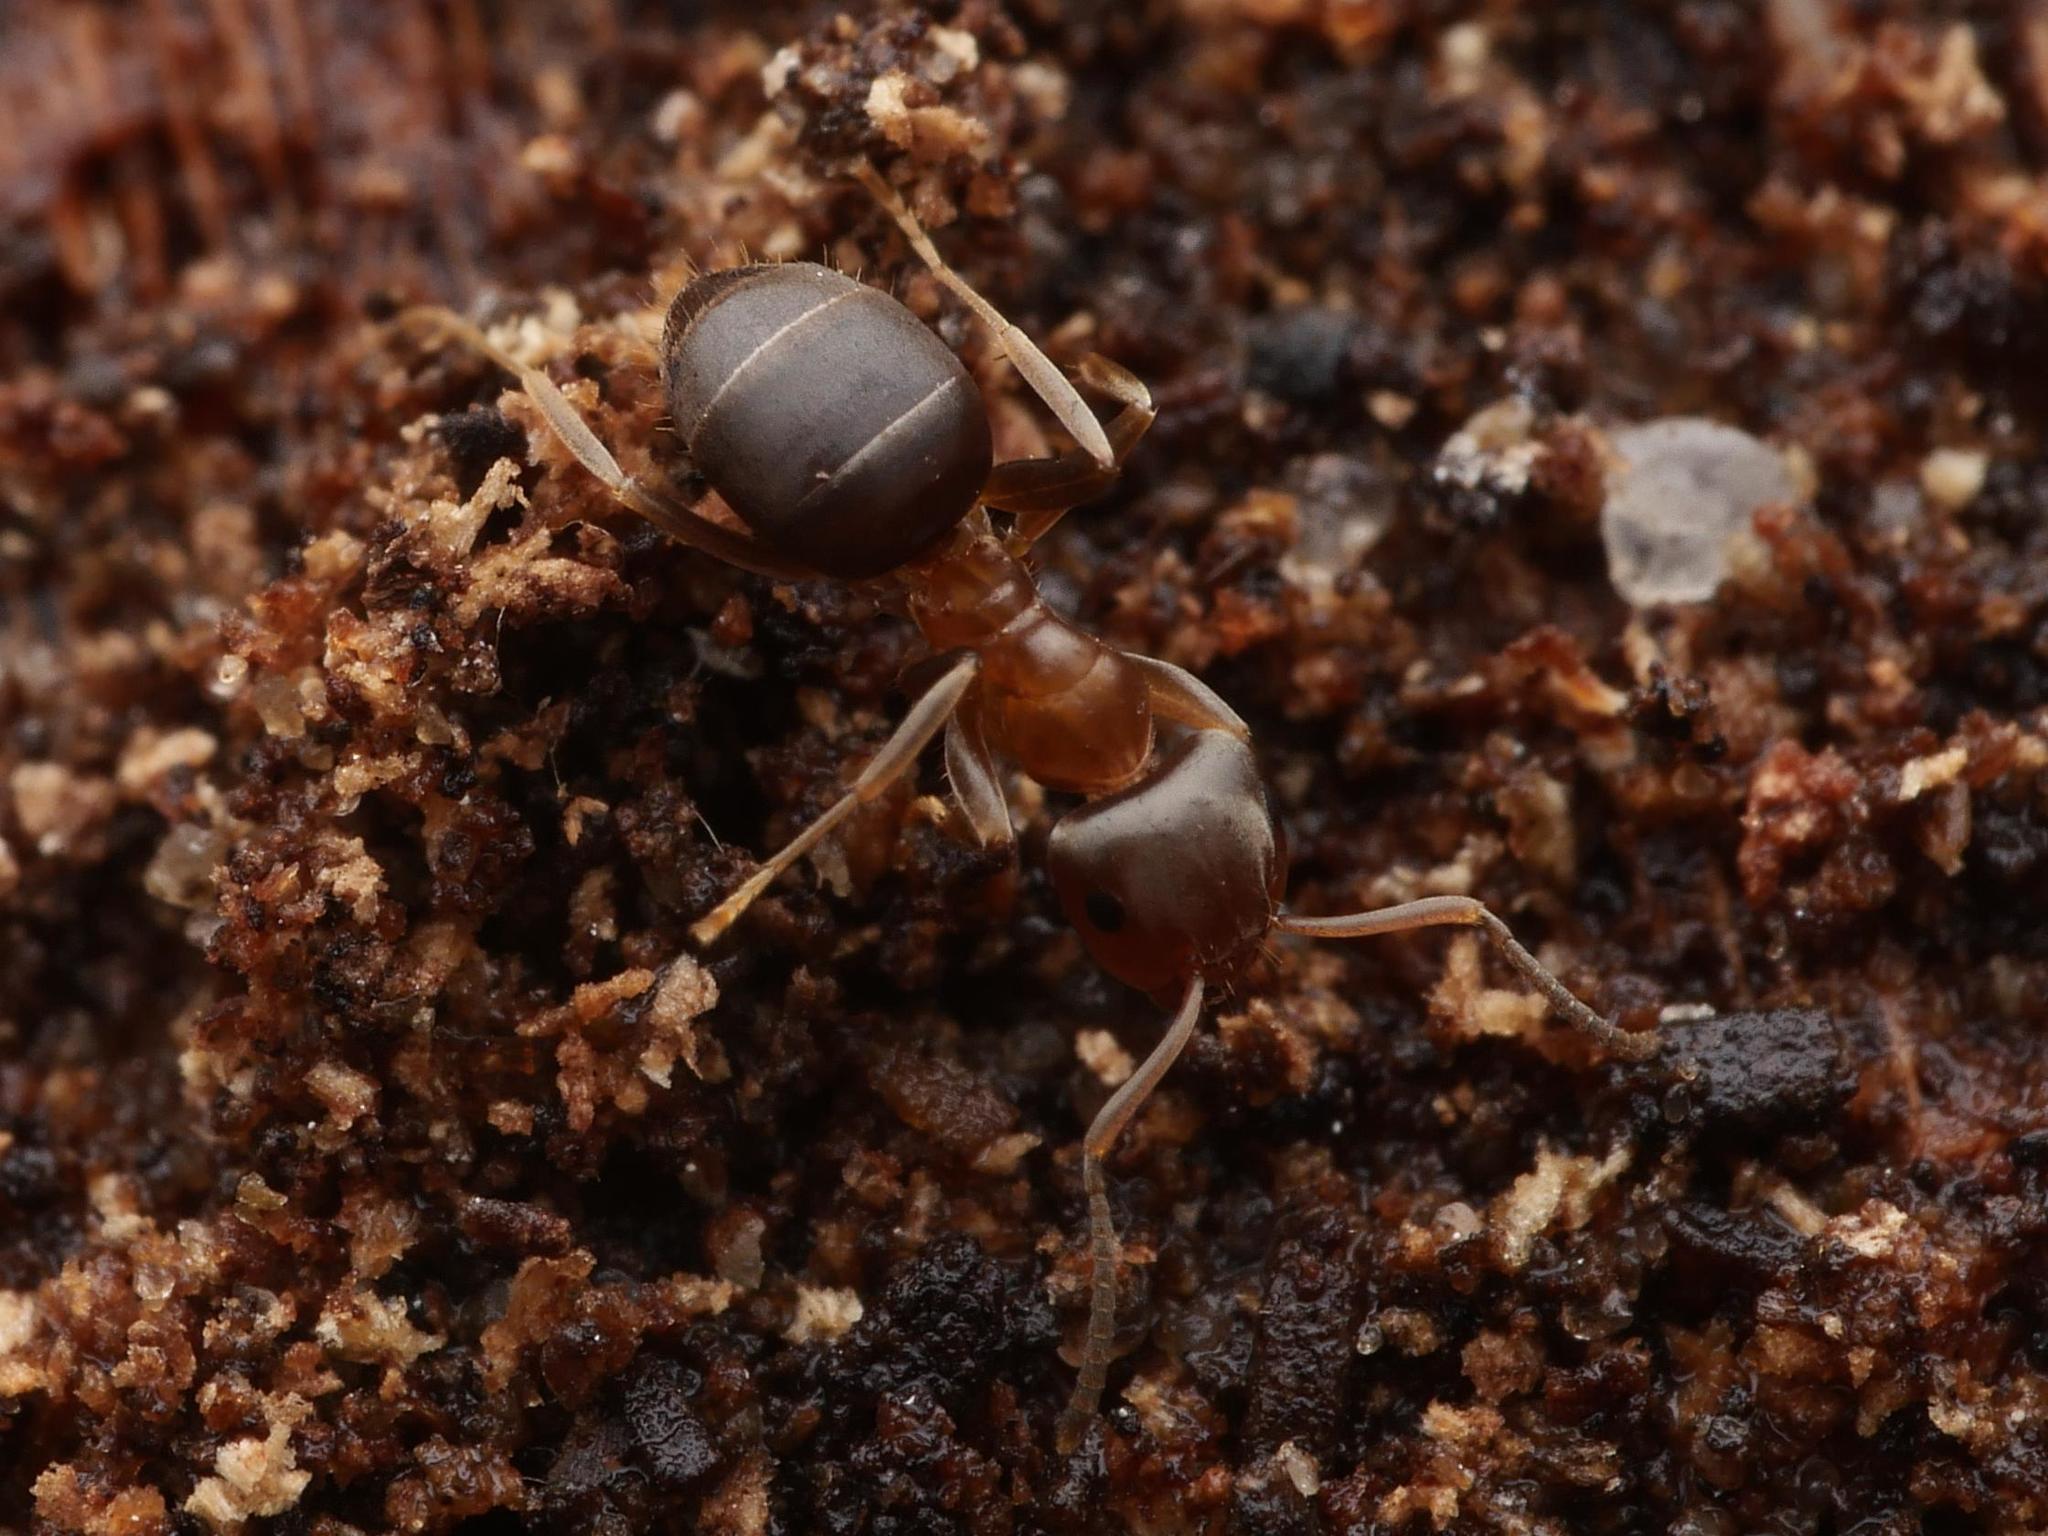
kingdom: Animalia
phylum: Arthropoda
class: Insecta
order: Hymenoptera
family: Formicidae
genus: Lasius
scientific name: Lasius brunneus
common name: Brown ant
